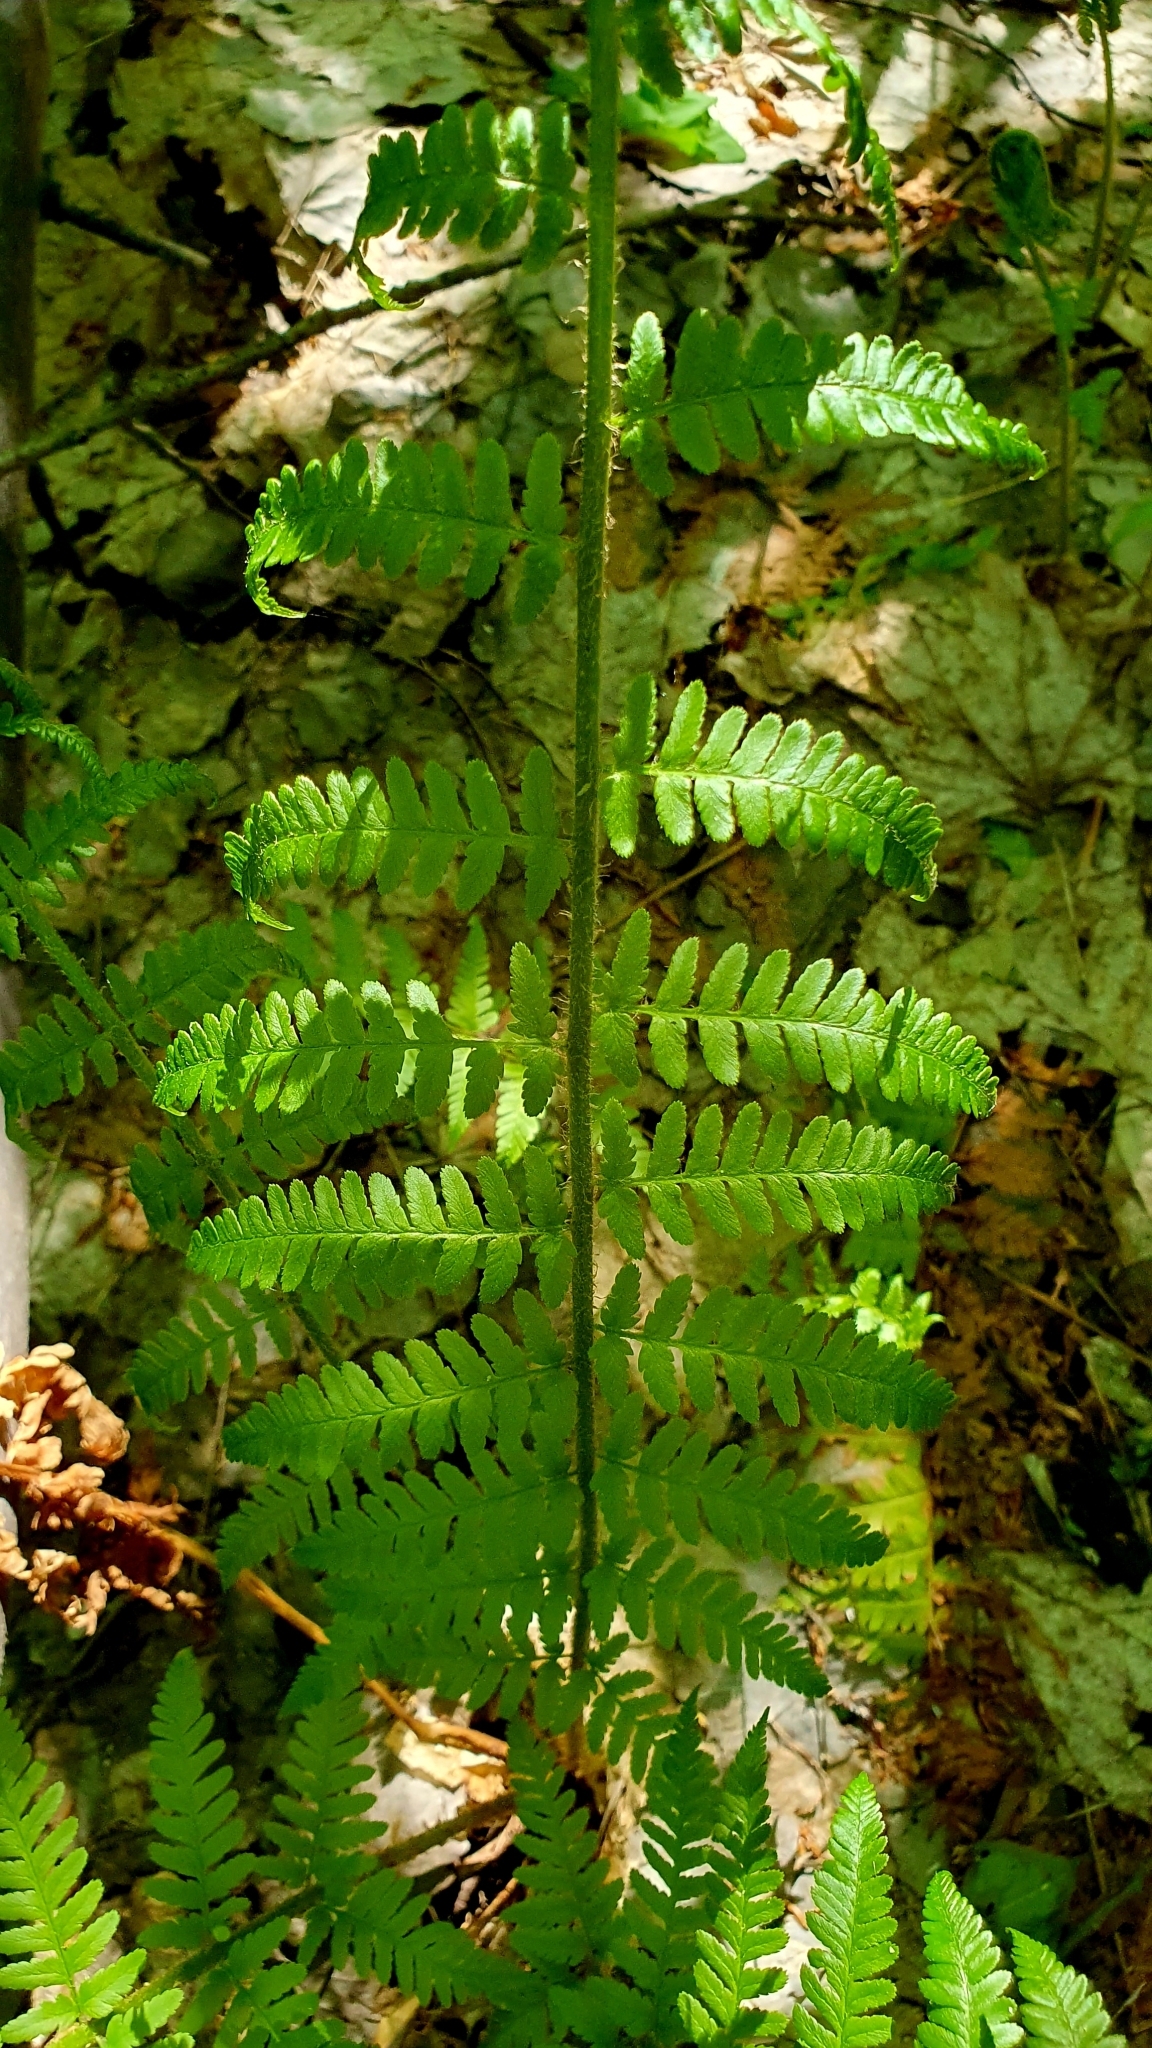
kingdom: Plantae
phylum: Tracheophyta
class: Polypodiopsida
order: Polypodiales
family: Dryopteridaceae
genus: Dryopteris
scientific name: Dryopteris filix-mas
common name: Male fern
